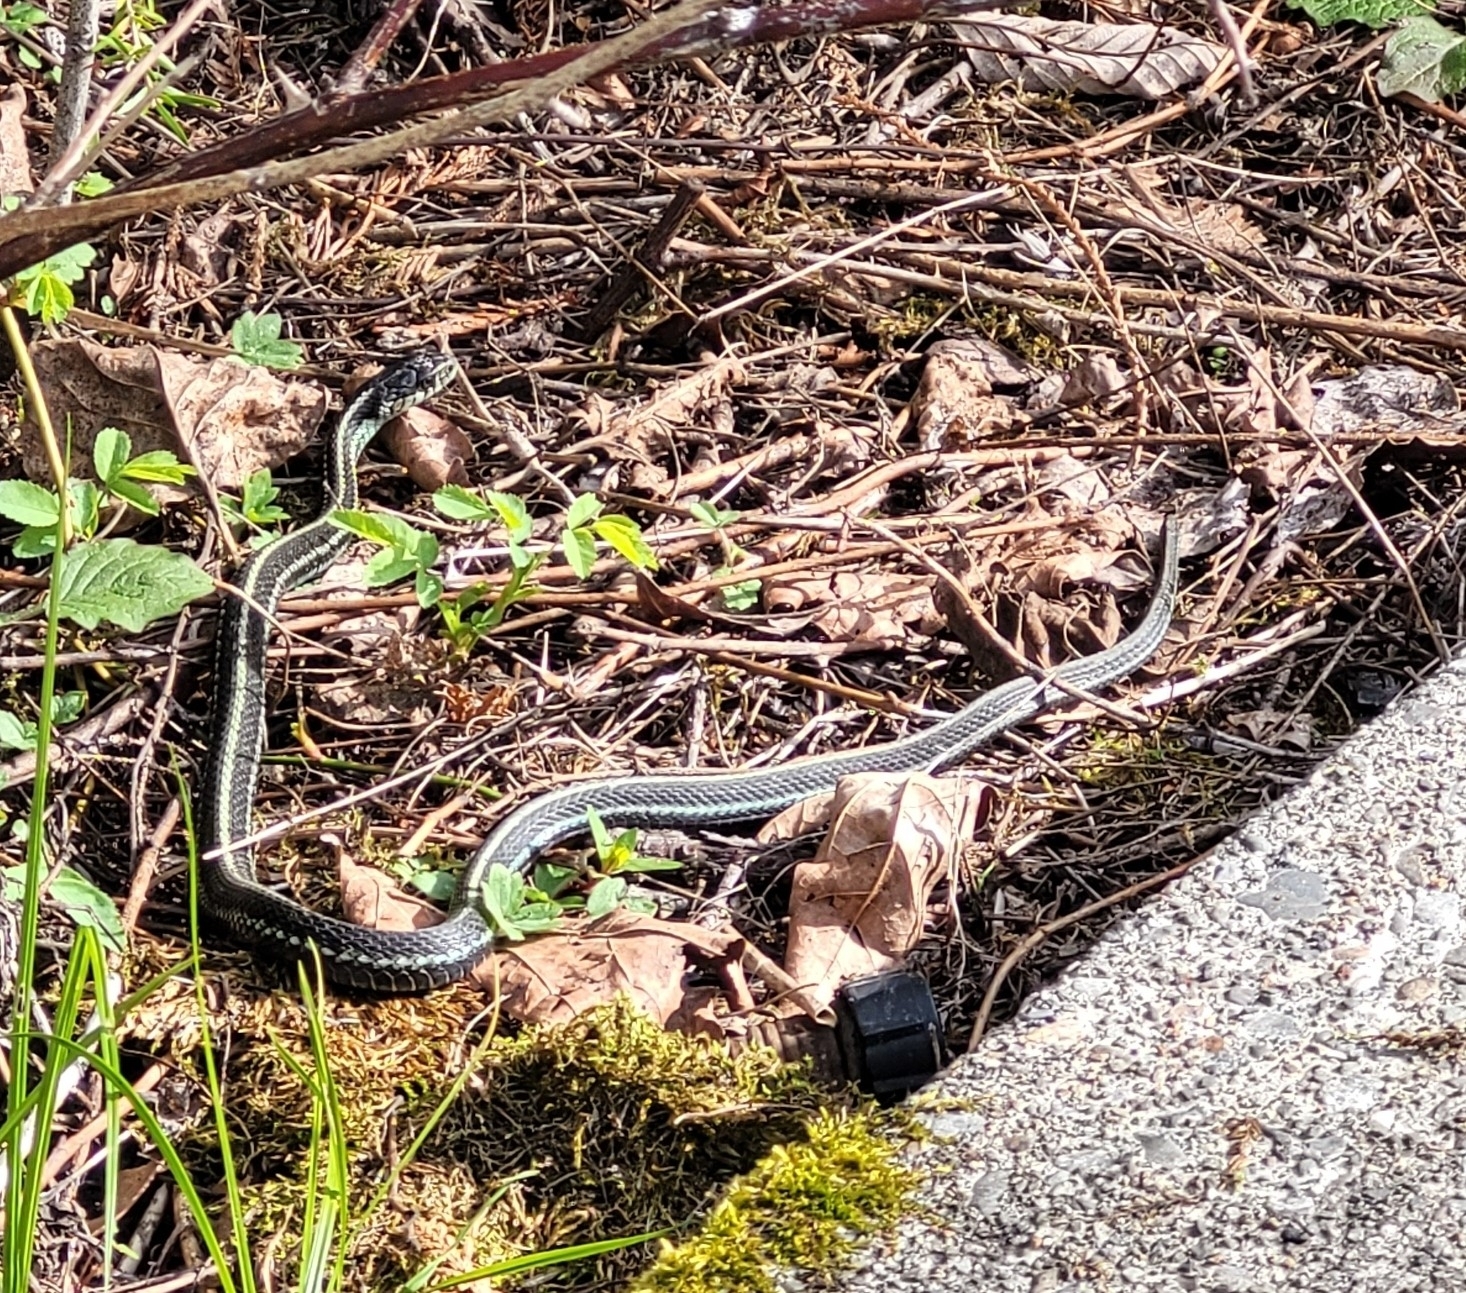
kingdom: Animalia
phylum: Chordata
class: Squamata
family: Colubridae
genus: Thamnophis
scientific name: Thamnophis sirtalis
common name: Common garter snake
